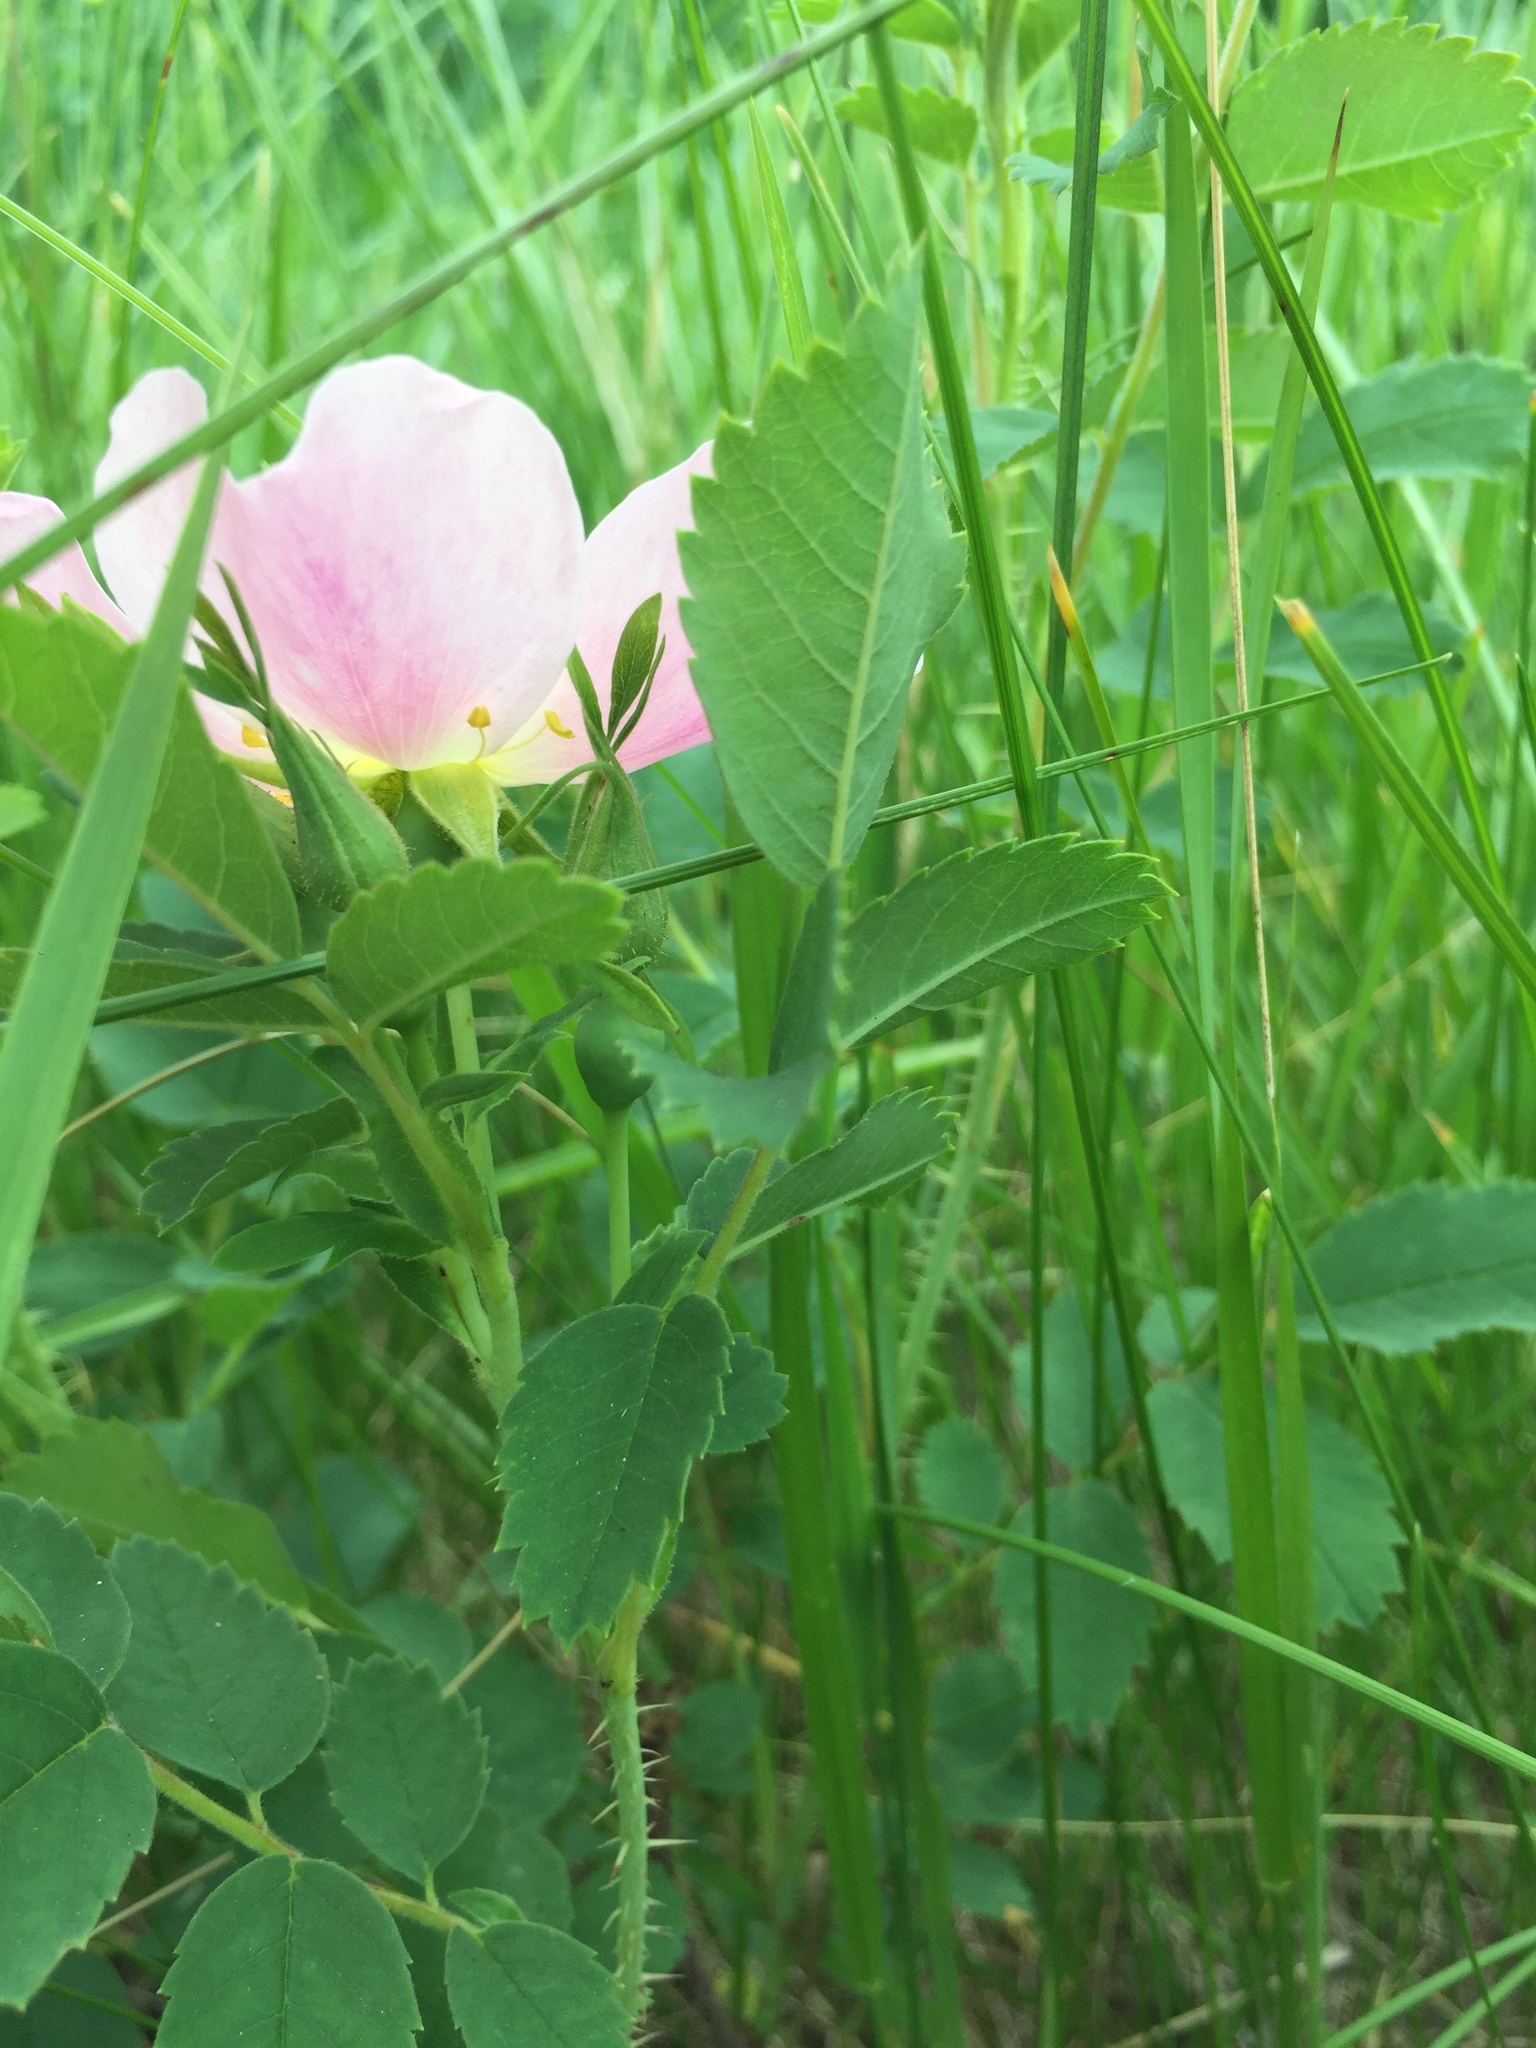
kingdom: Plantae
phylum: Tracheophyta
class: Magnoliopsida
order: Rosales
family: Rosaceae
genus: Rosa
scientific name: Rosa arkansana
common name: Prairie rose
